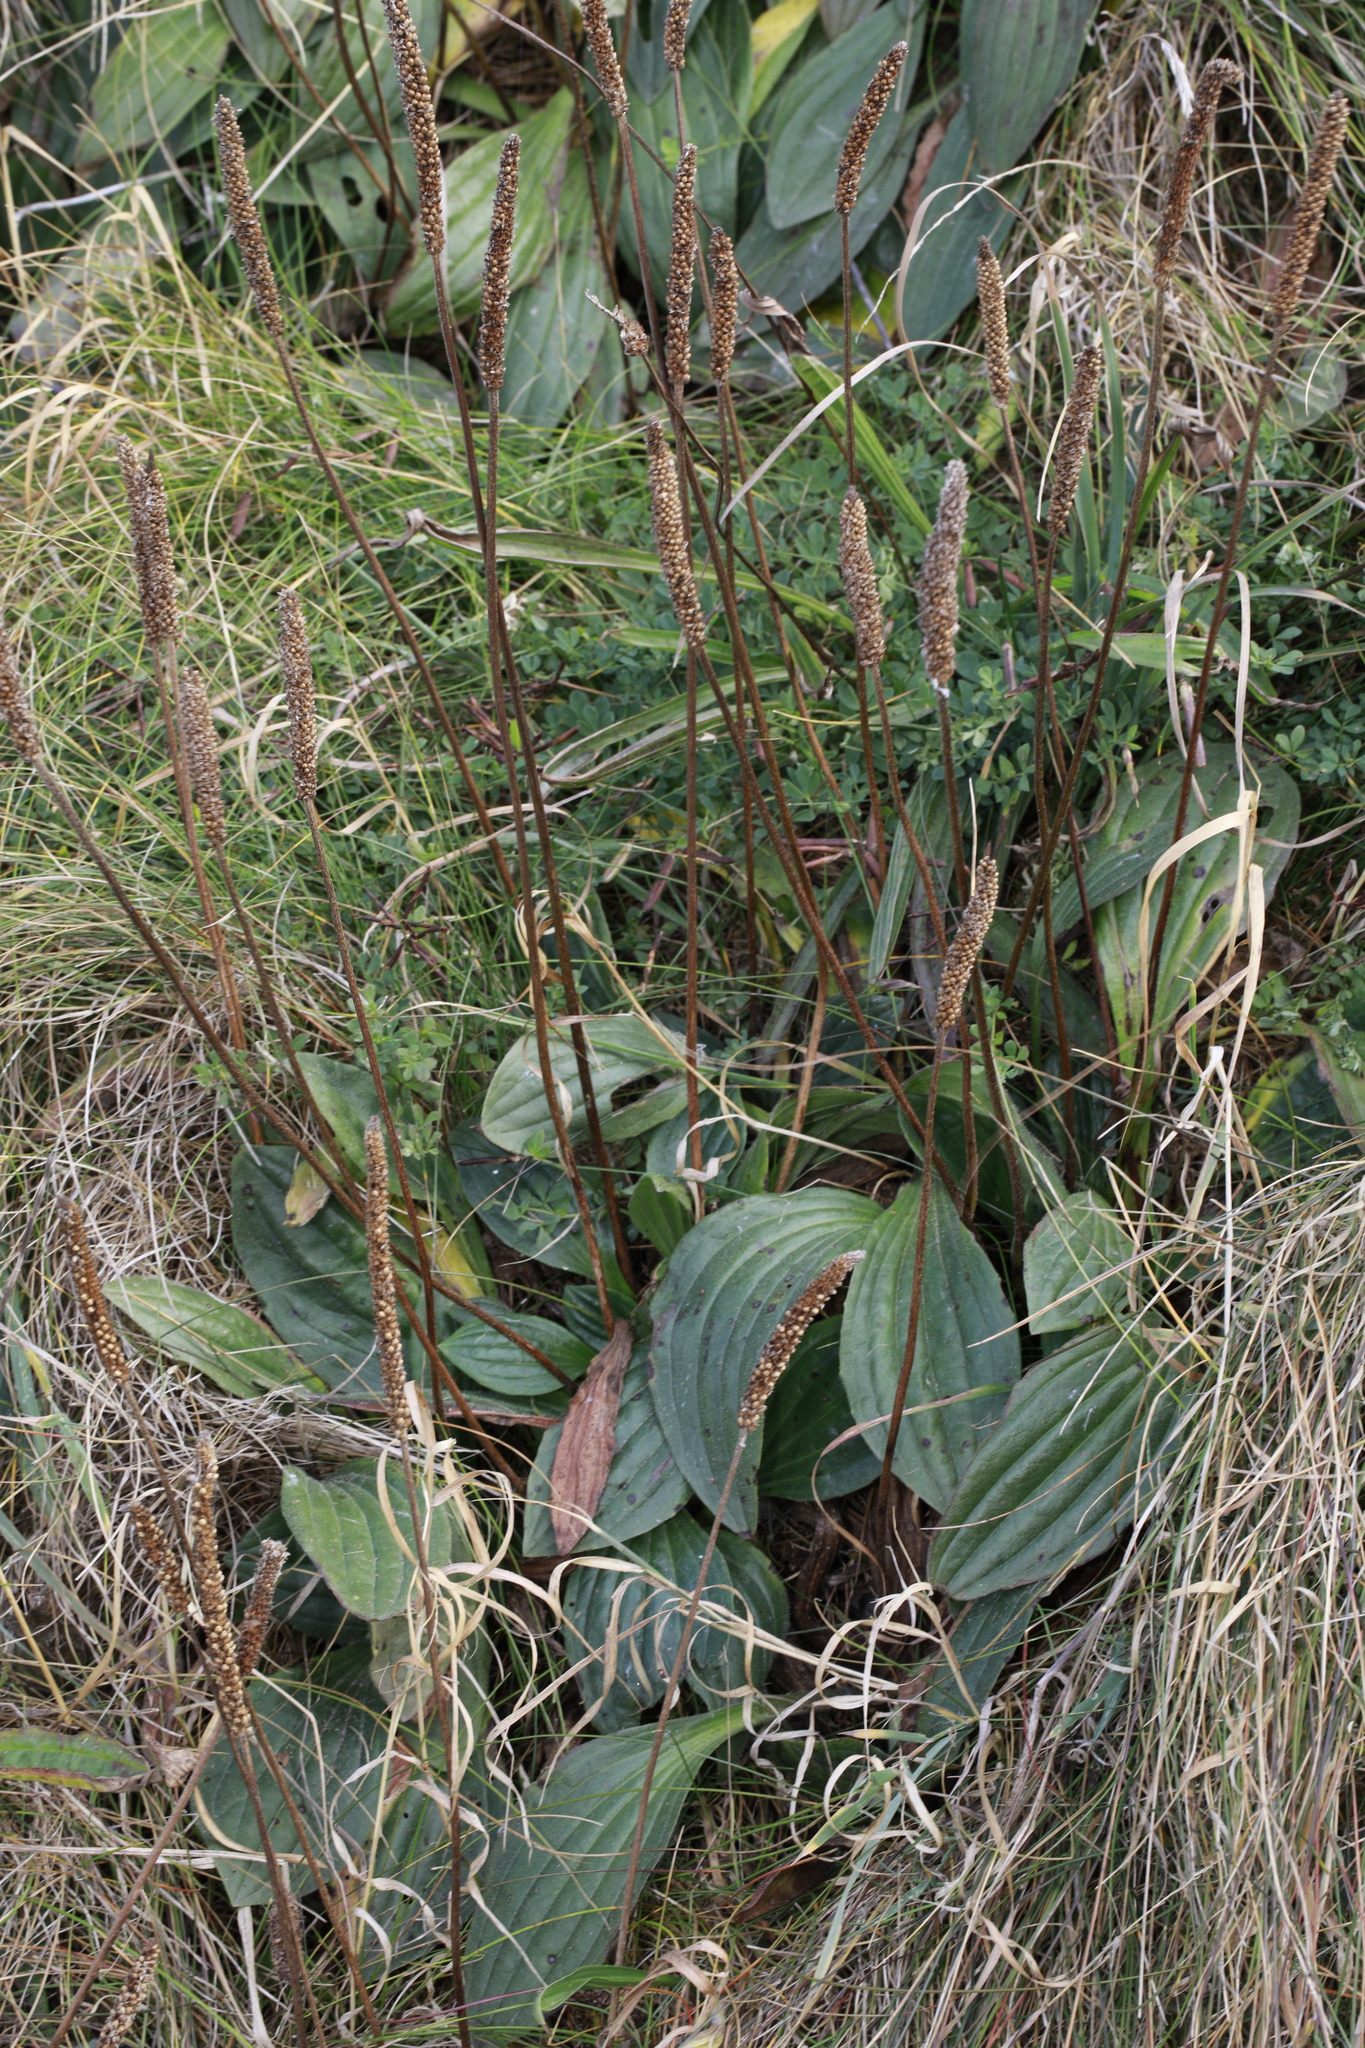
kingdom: Plantae
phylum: Tracheophyta
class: Magnoliopsida
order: Lamiales
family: Plantaginaceae
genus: Plantago
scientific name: Plantago media
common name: Hoary plantain
